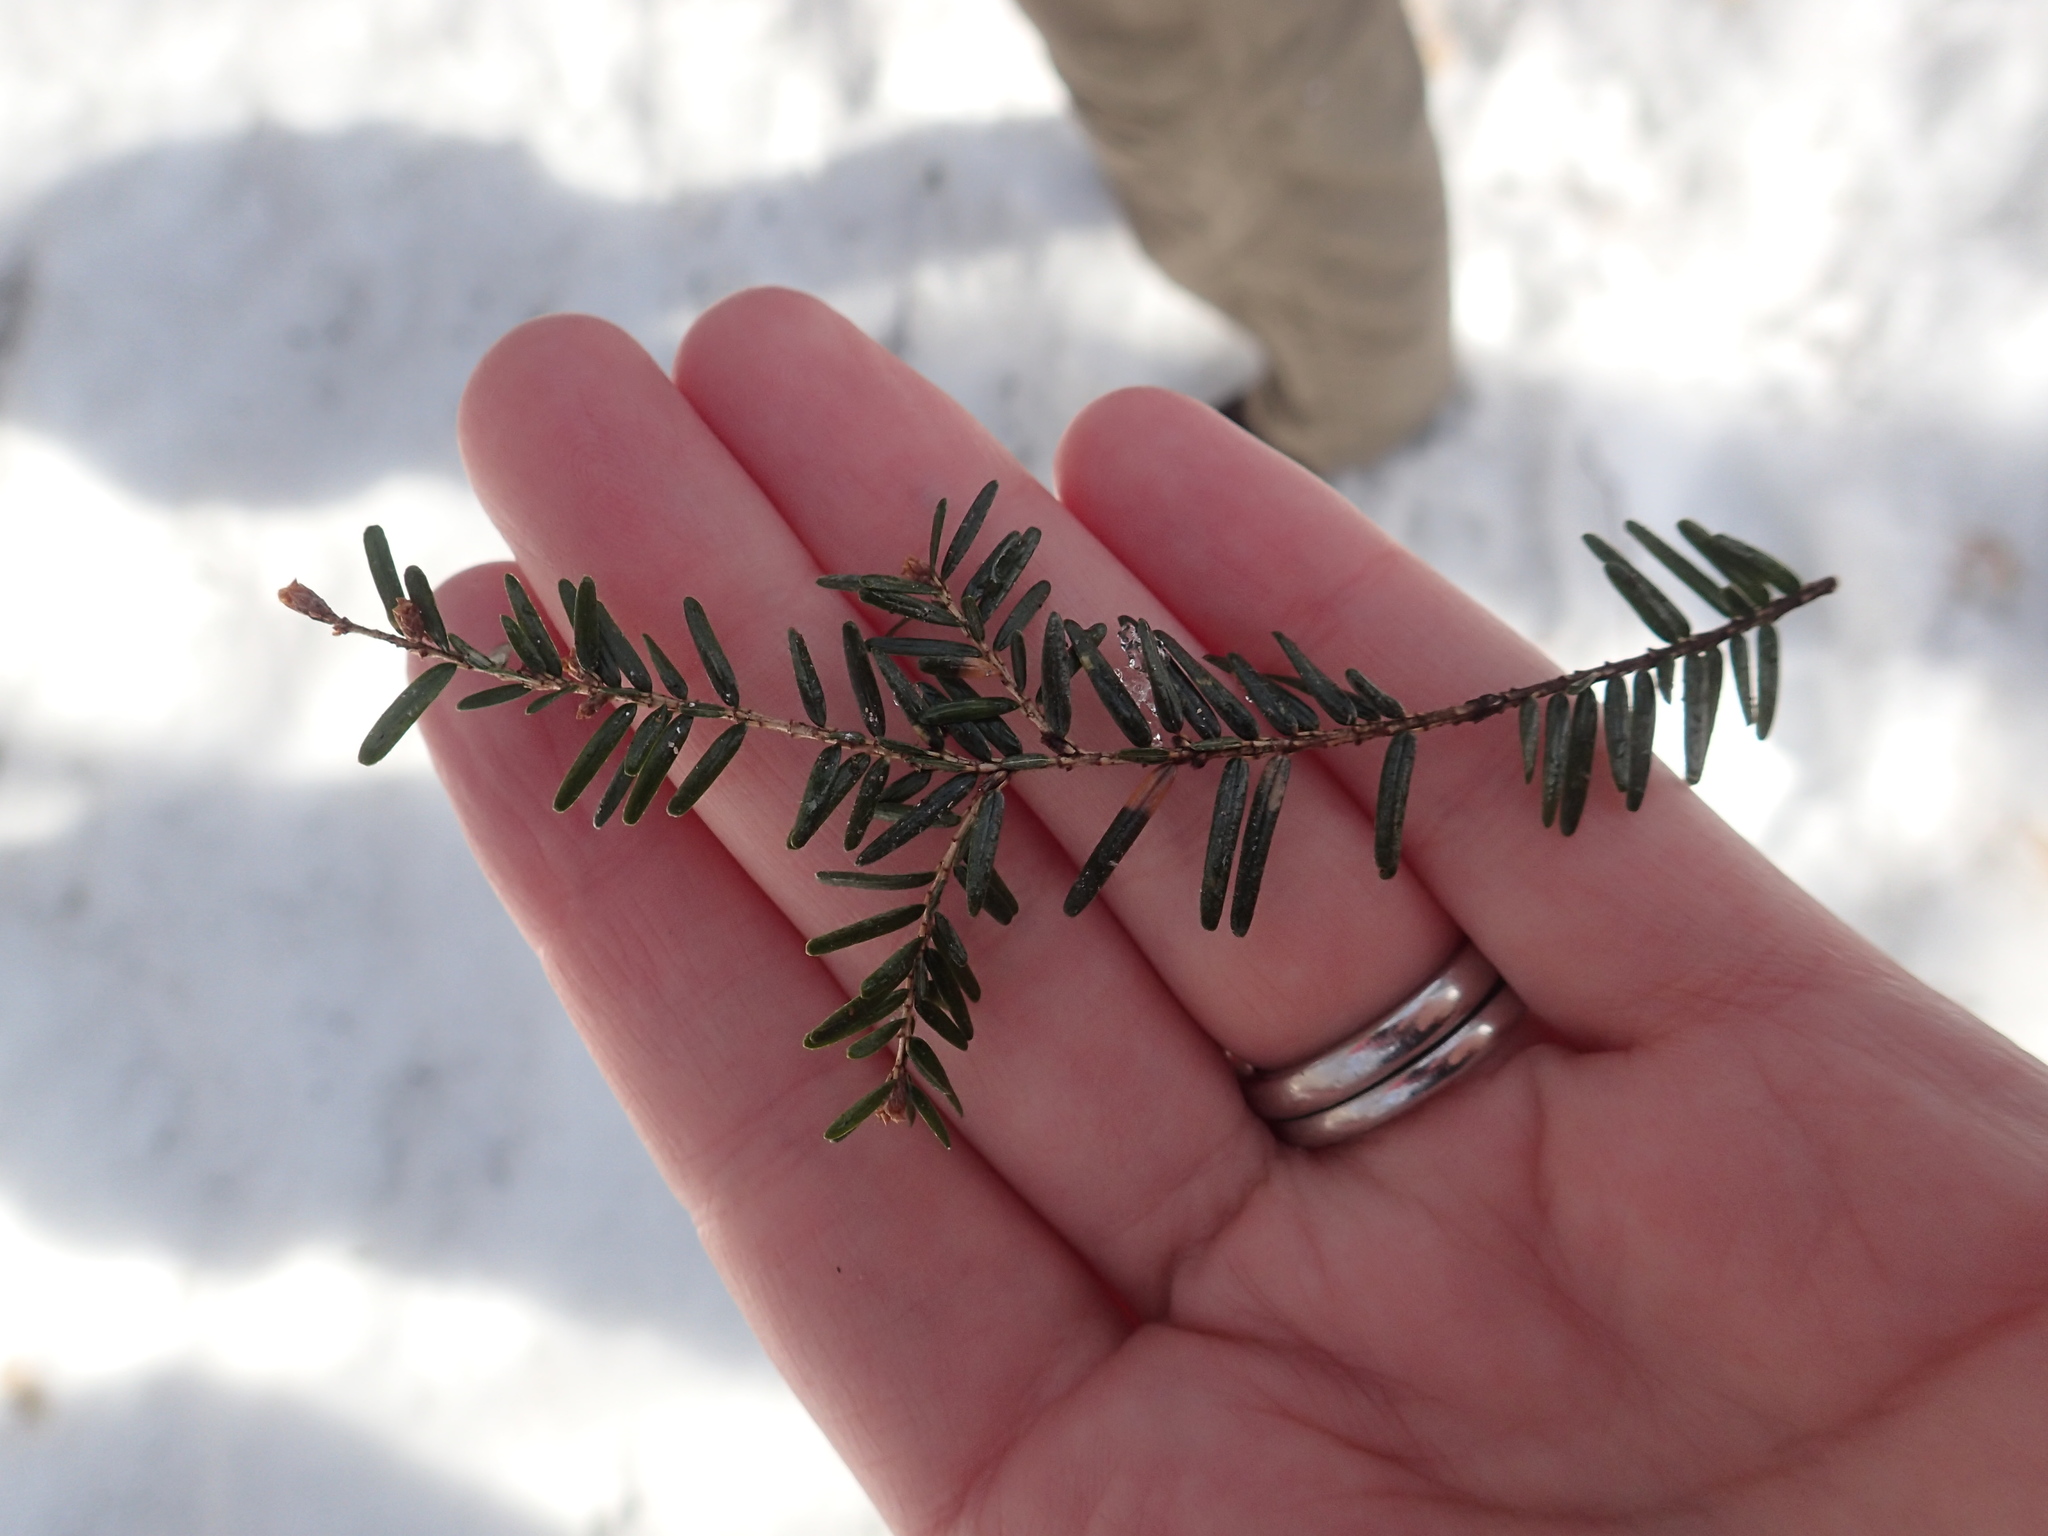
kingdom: Plantae
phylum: Tracheophyta
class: Pinopsida
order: Pinales
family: Pinaceae
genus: Tsuga
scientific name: Tsuga canadensis
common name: Eastern hemlock
